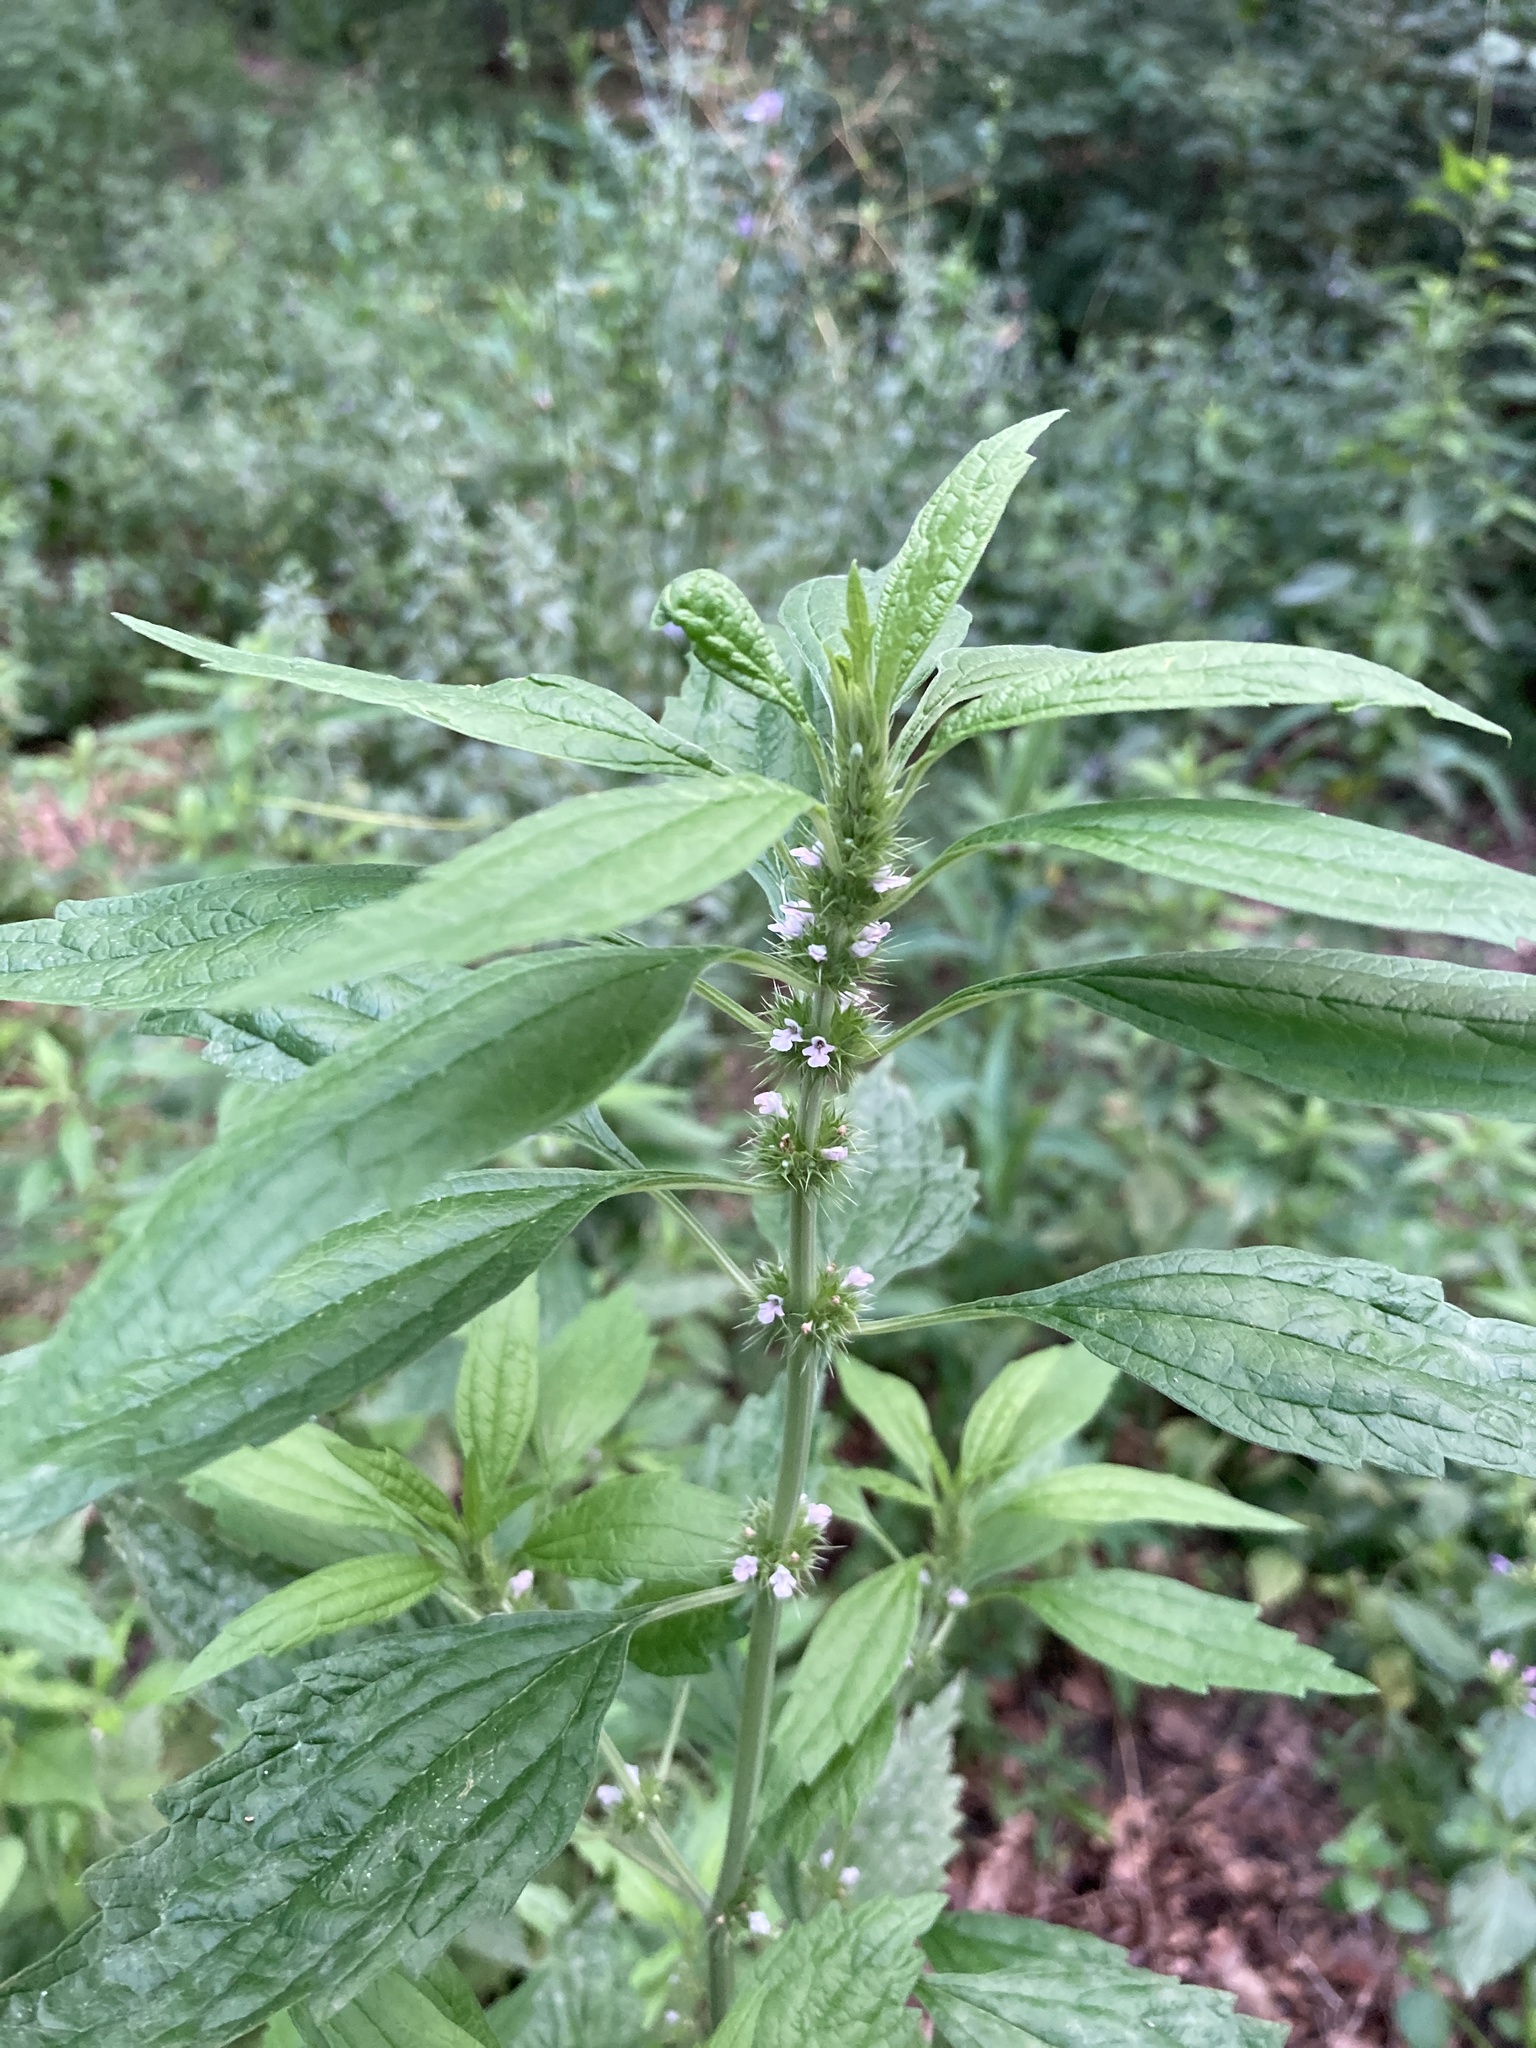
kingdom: Plantae
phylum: Tracheophyta
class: Magnoliopsida
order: Lamiales
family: Lamiaceae
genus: Chaiturus
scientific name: Chaiturus marrubiastrum
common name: Lion's tail
